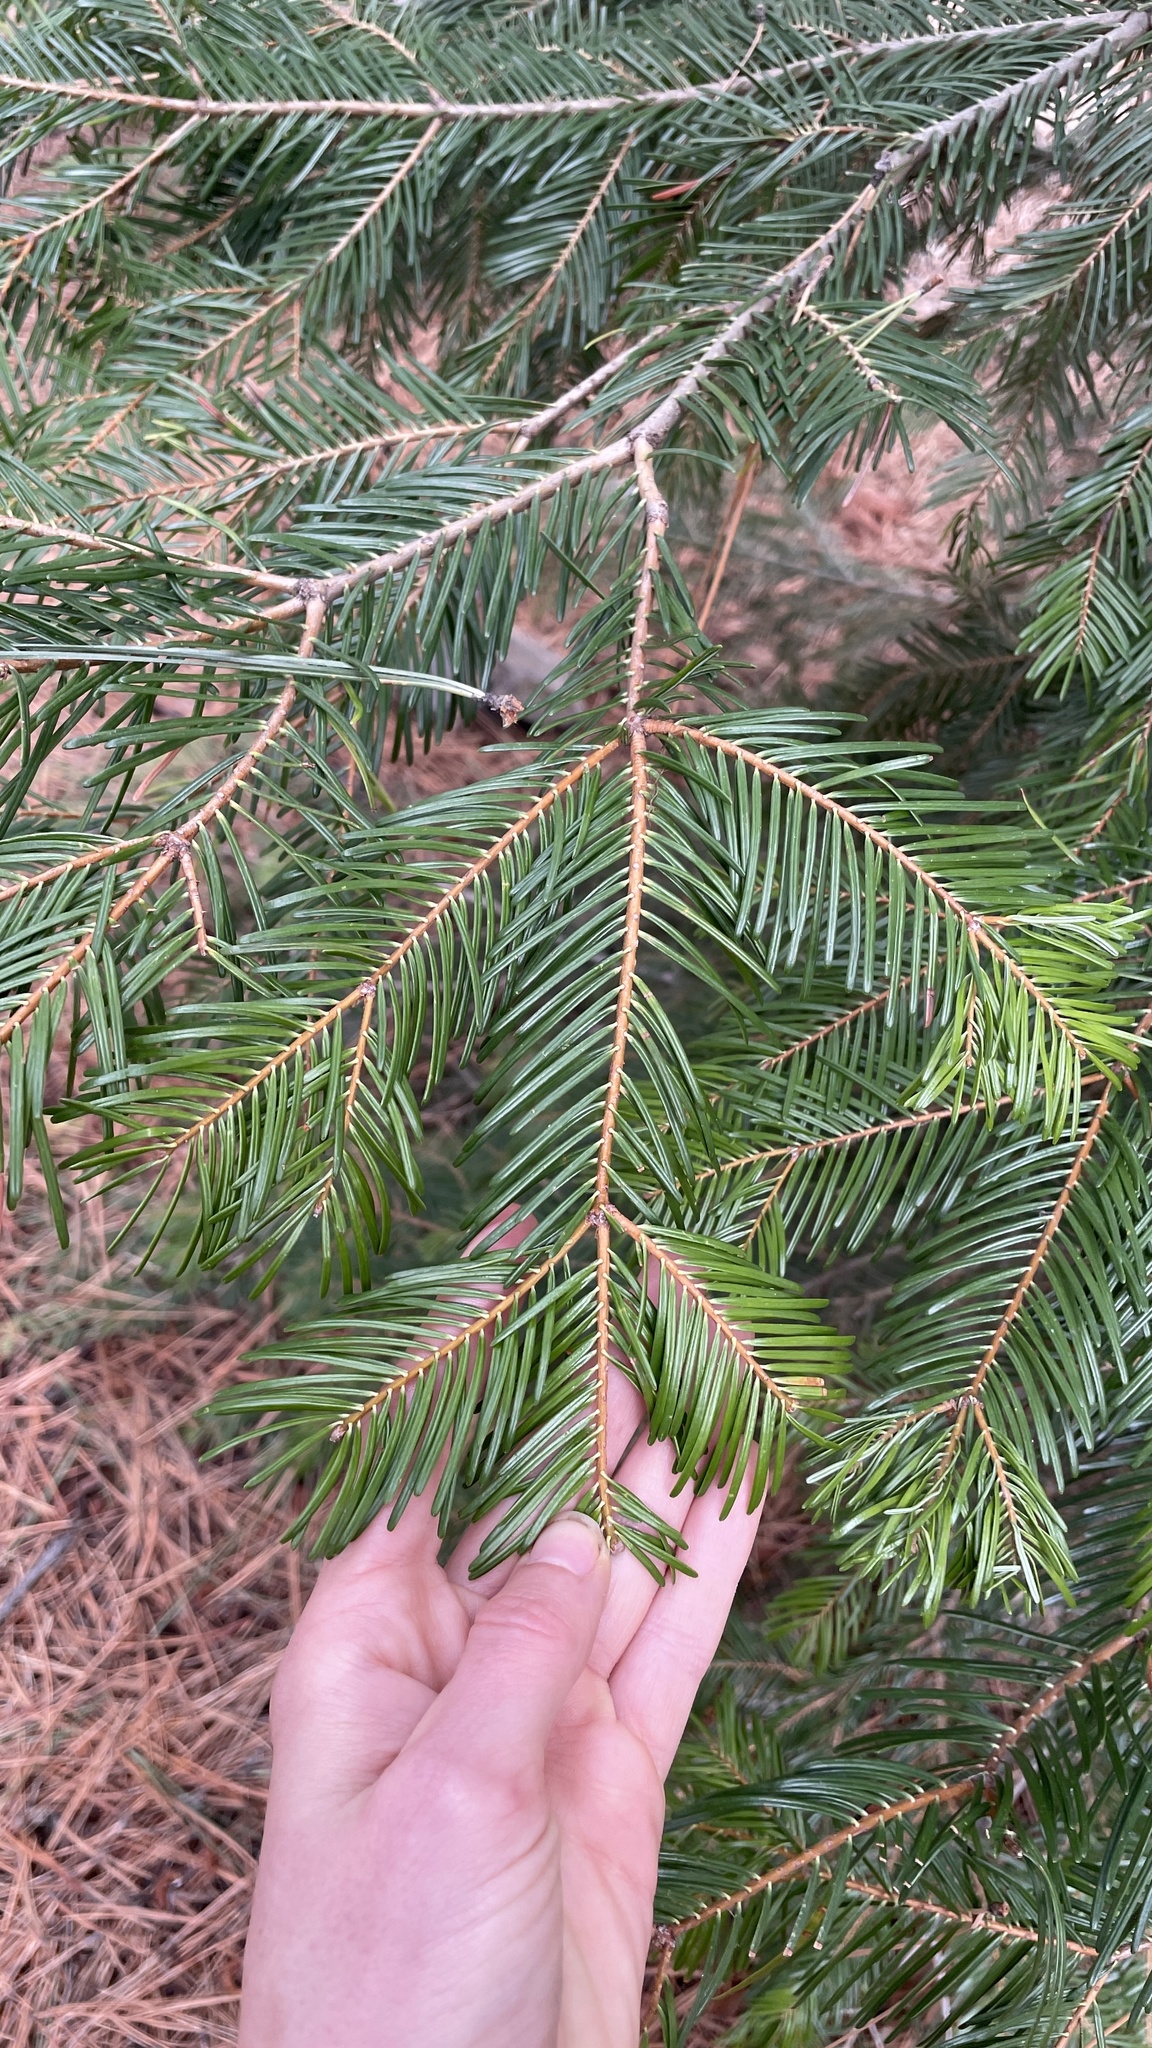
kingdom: Plantae
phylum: Tracheophyta
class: Pinopsida
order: Pinales
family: Pinaceae
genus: Abies
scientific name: Abies grandis
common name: Giant fir
